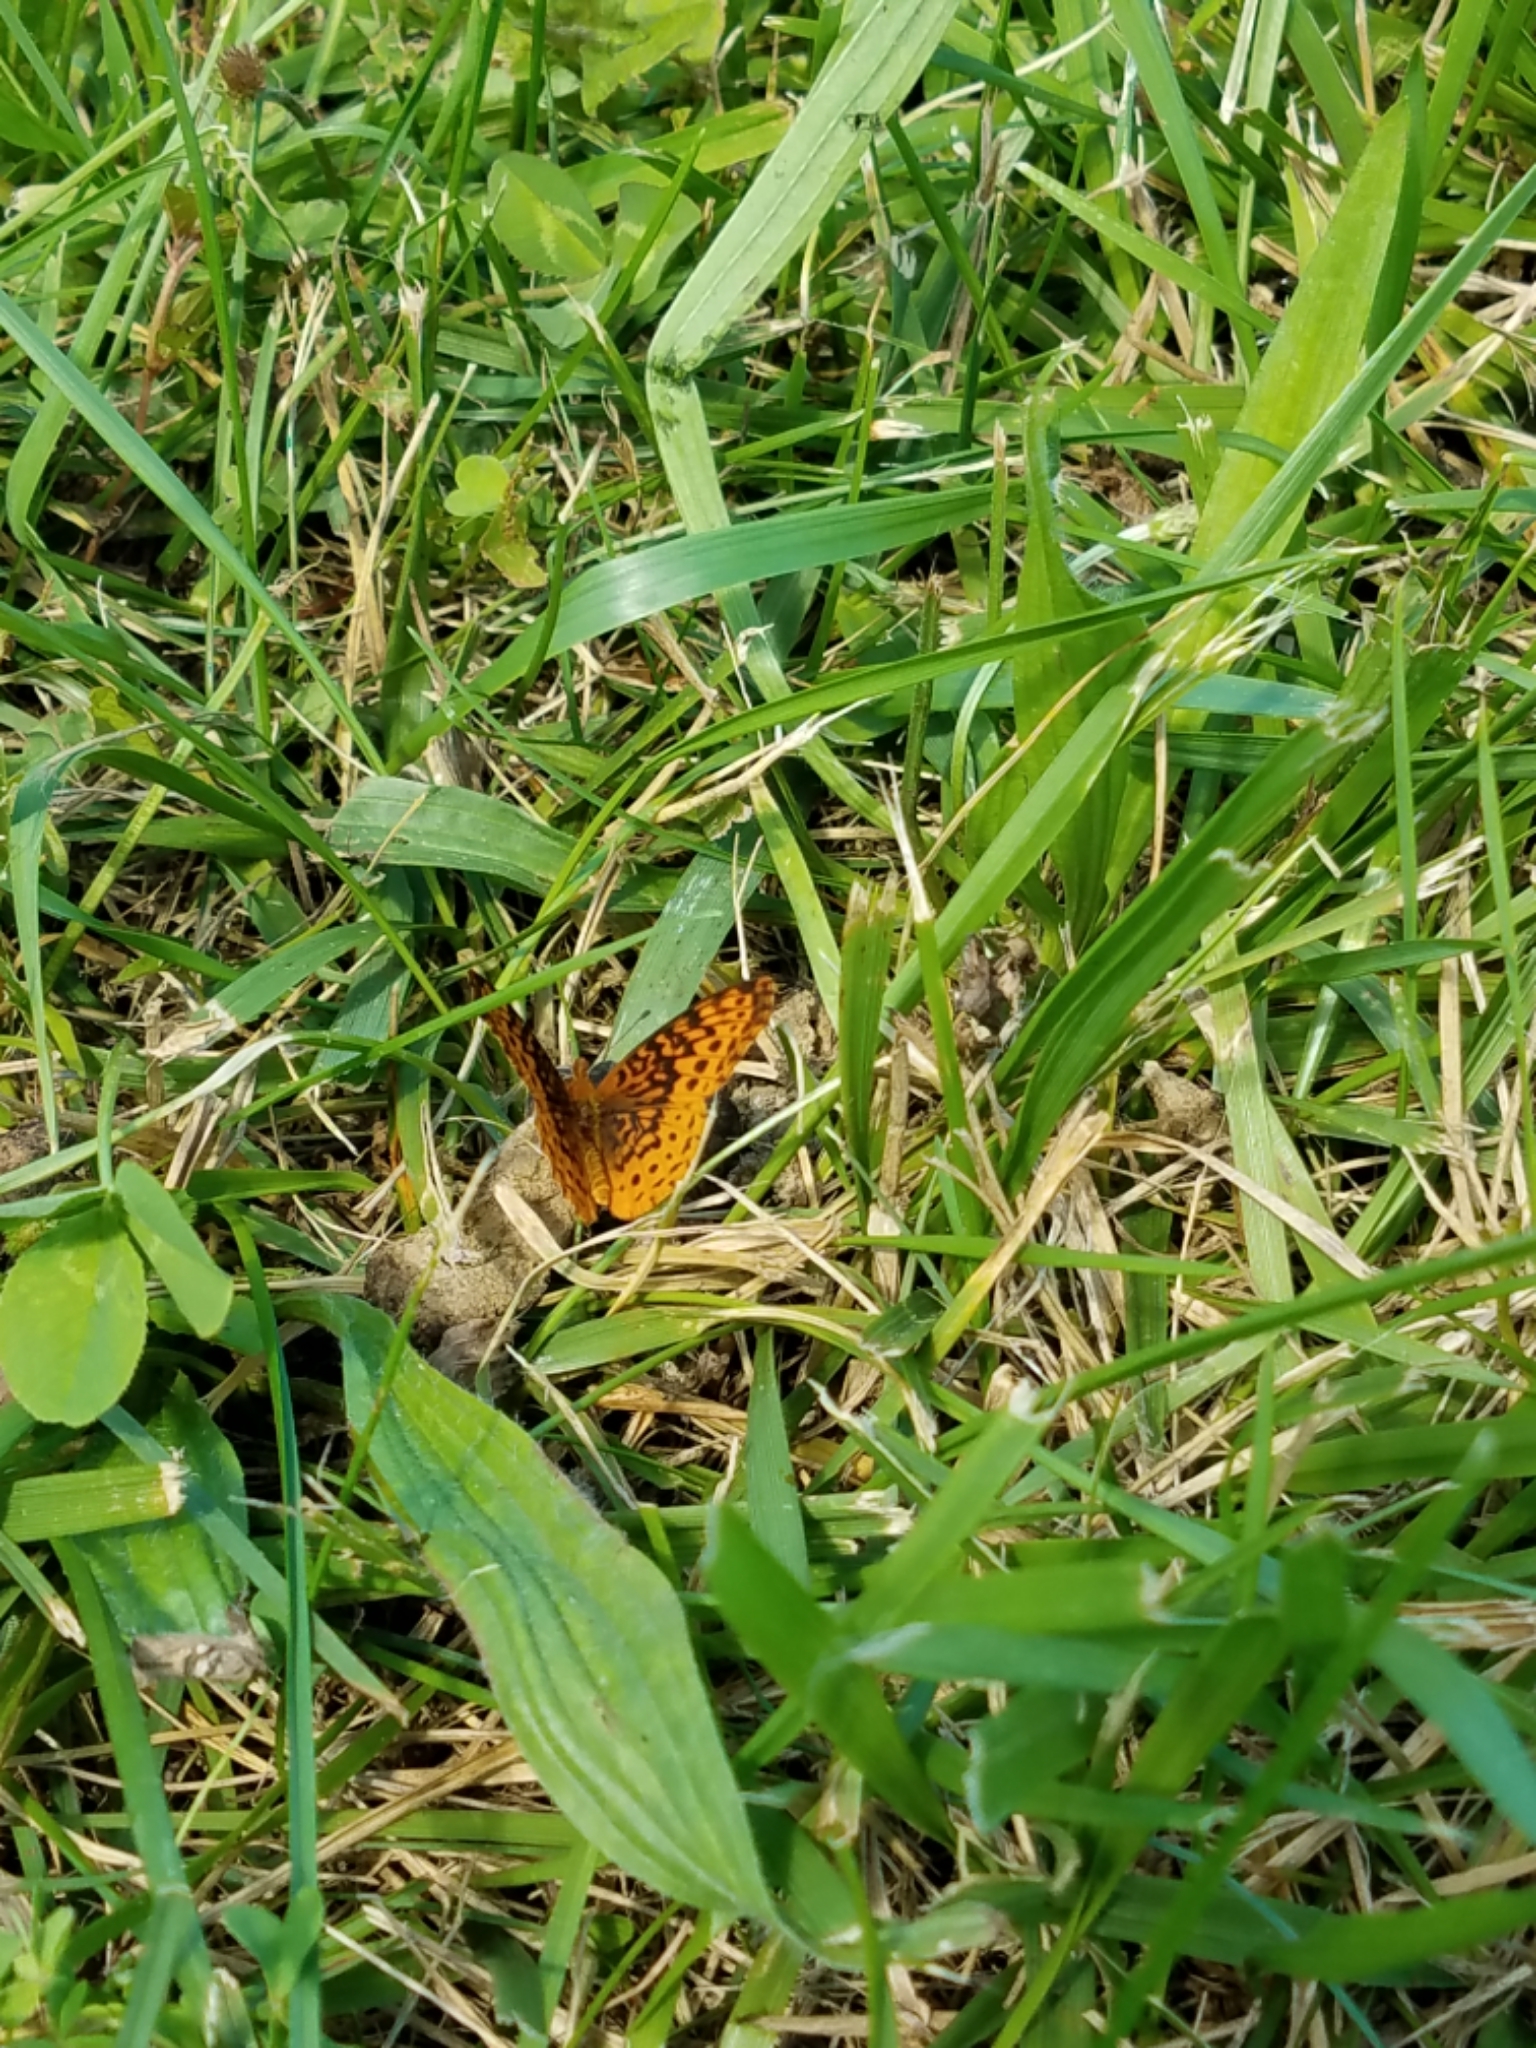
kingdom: Animalia
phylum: Arthropoda
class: Insecta
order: Lepidoptera
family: Nymphalidae
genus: Speyeria
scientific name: Speyeria cybele
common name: Great spangled fritillary
